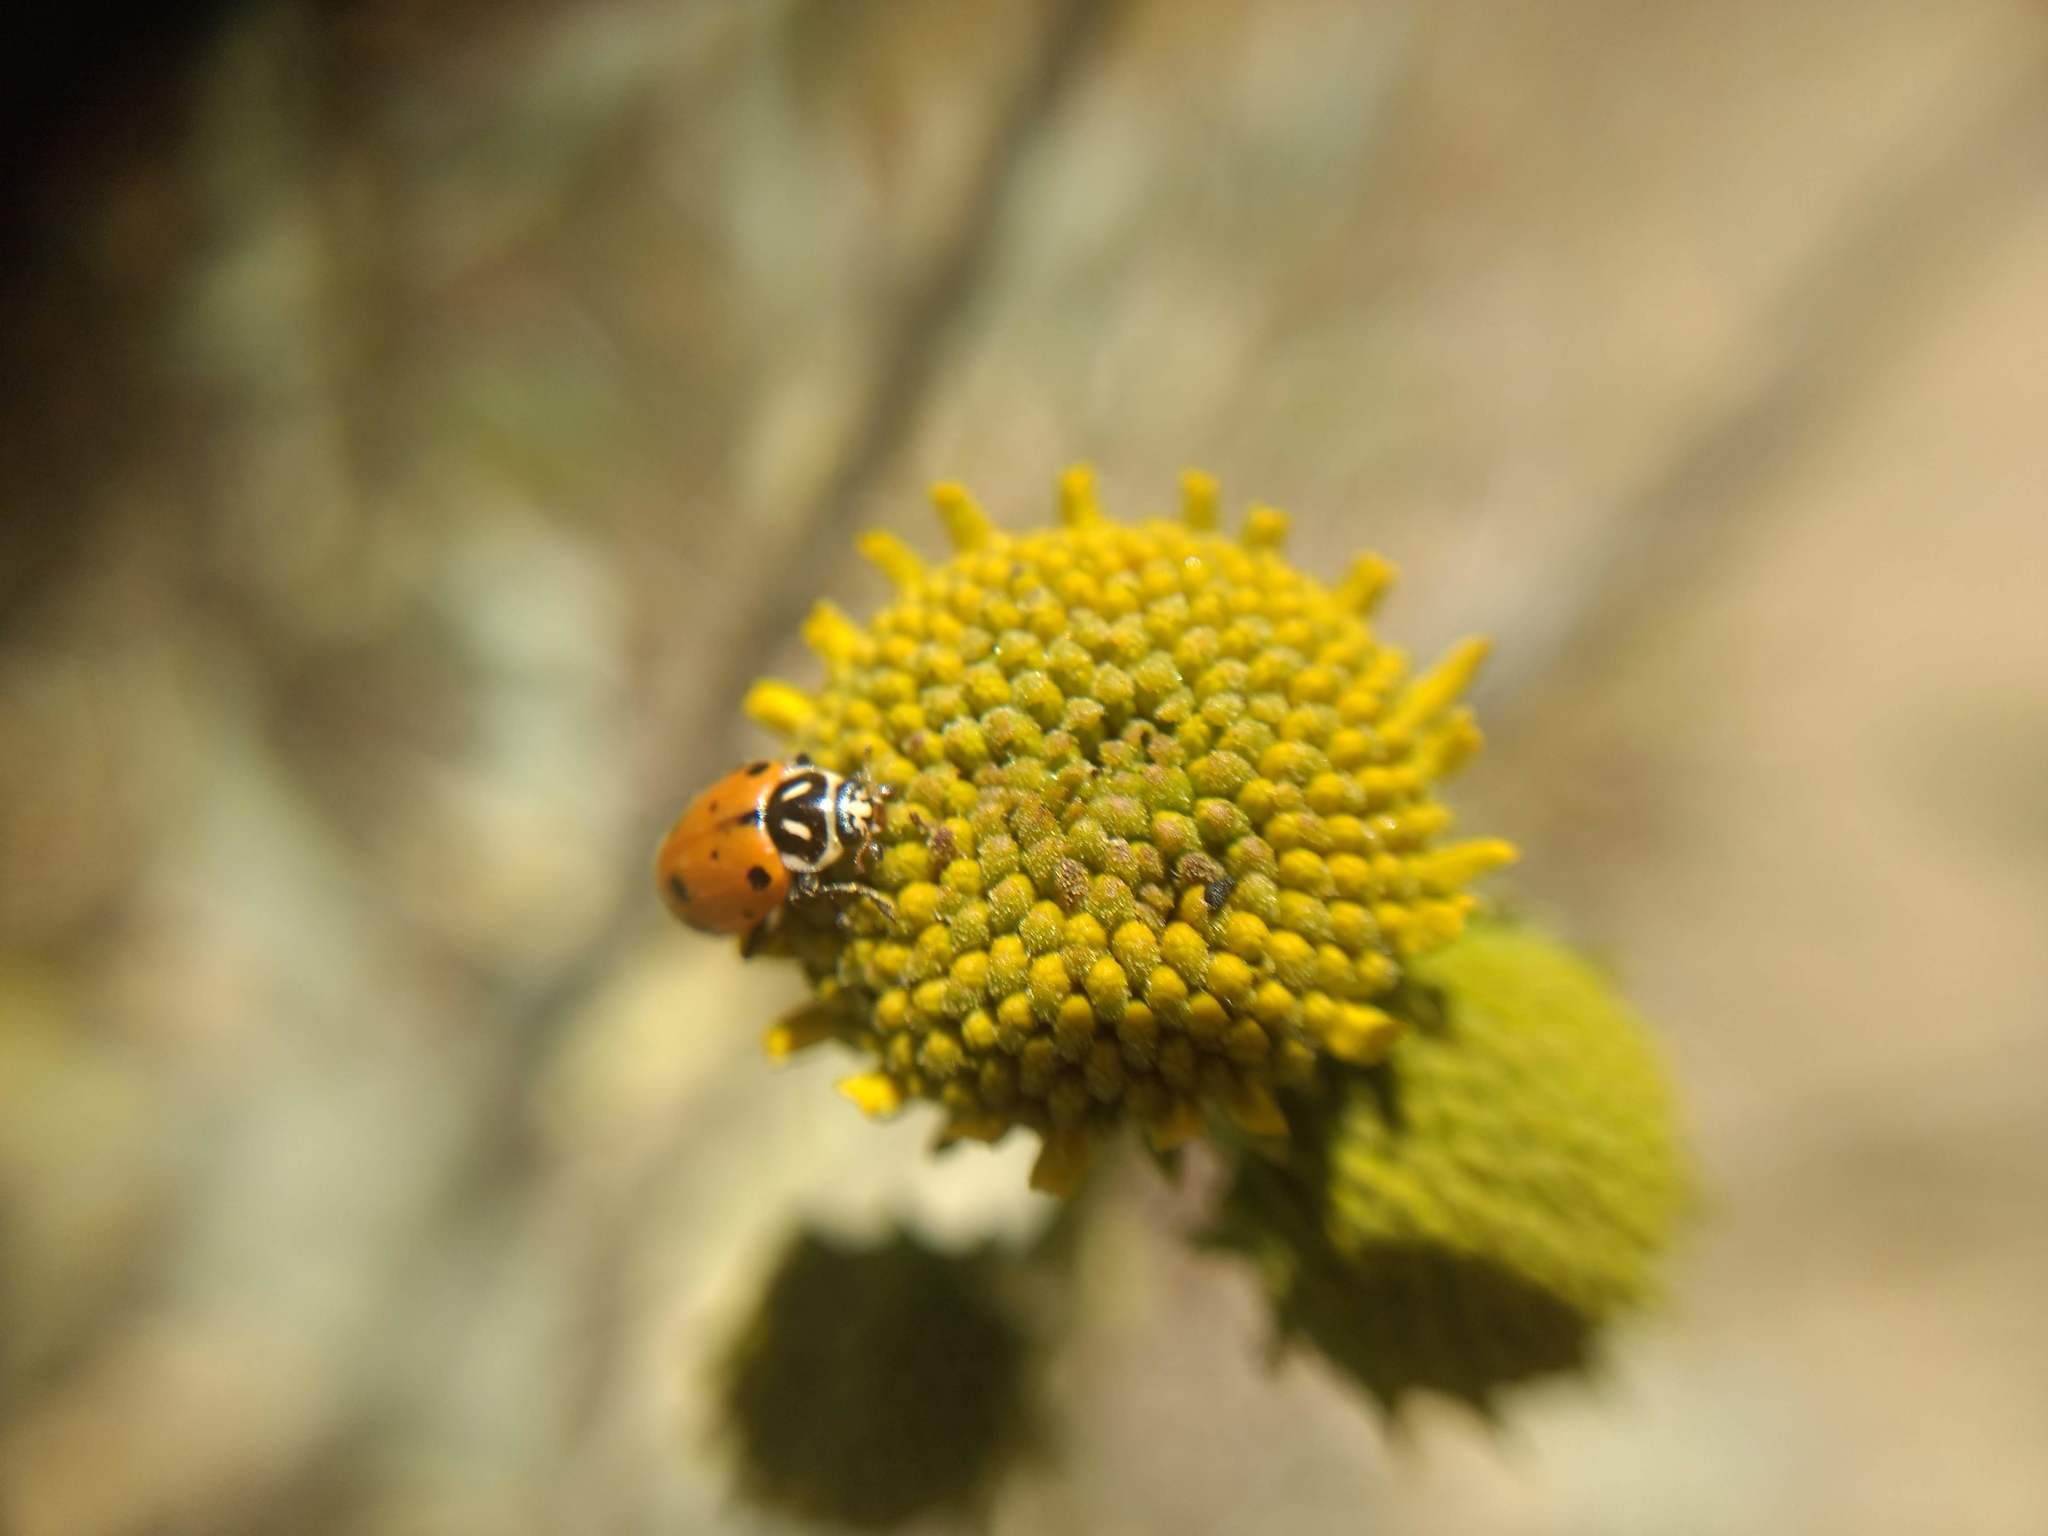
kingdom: Animalia
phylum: Arthropoda
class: Insecta
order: Coleoptera
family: Coccinellidae
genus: Hippodamia
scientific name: Hippodamia convergens
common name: Convergent lady beetle
